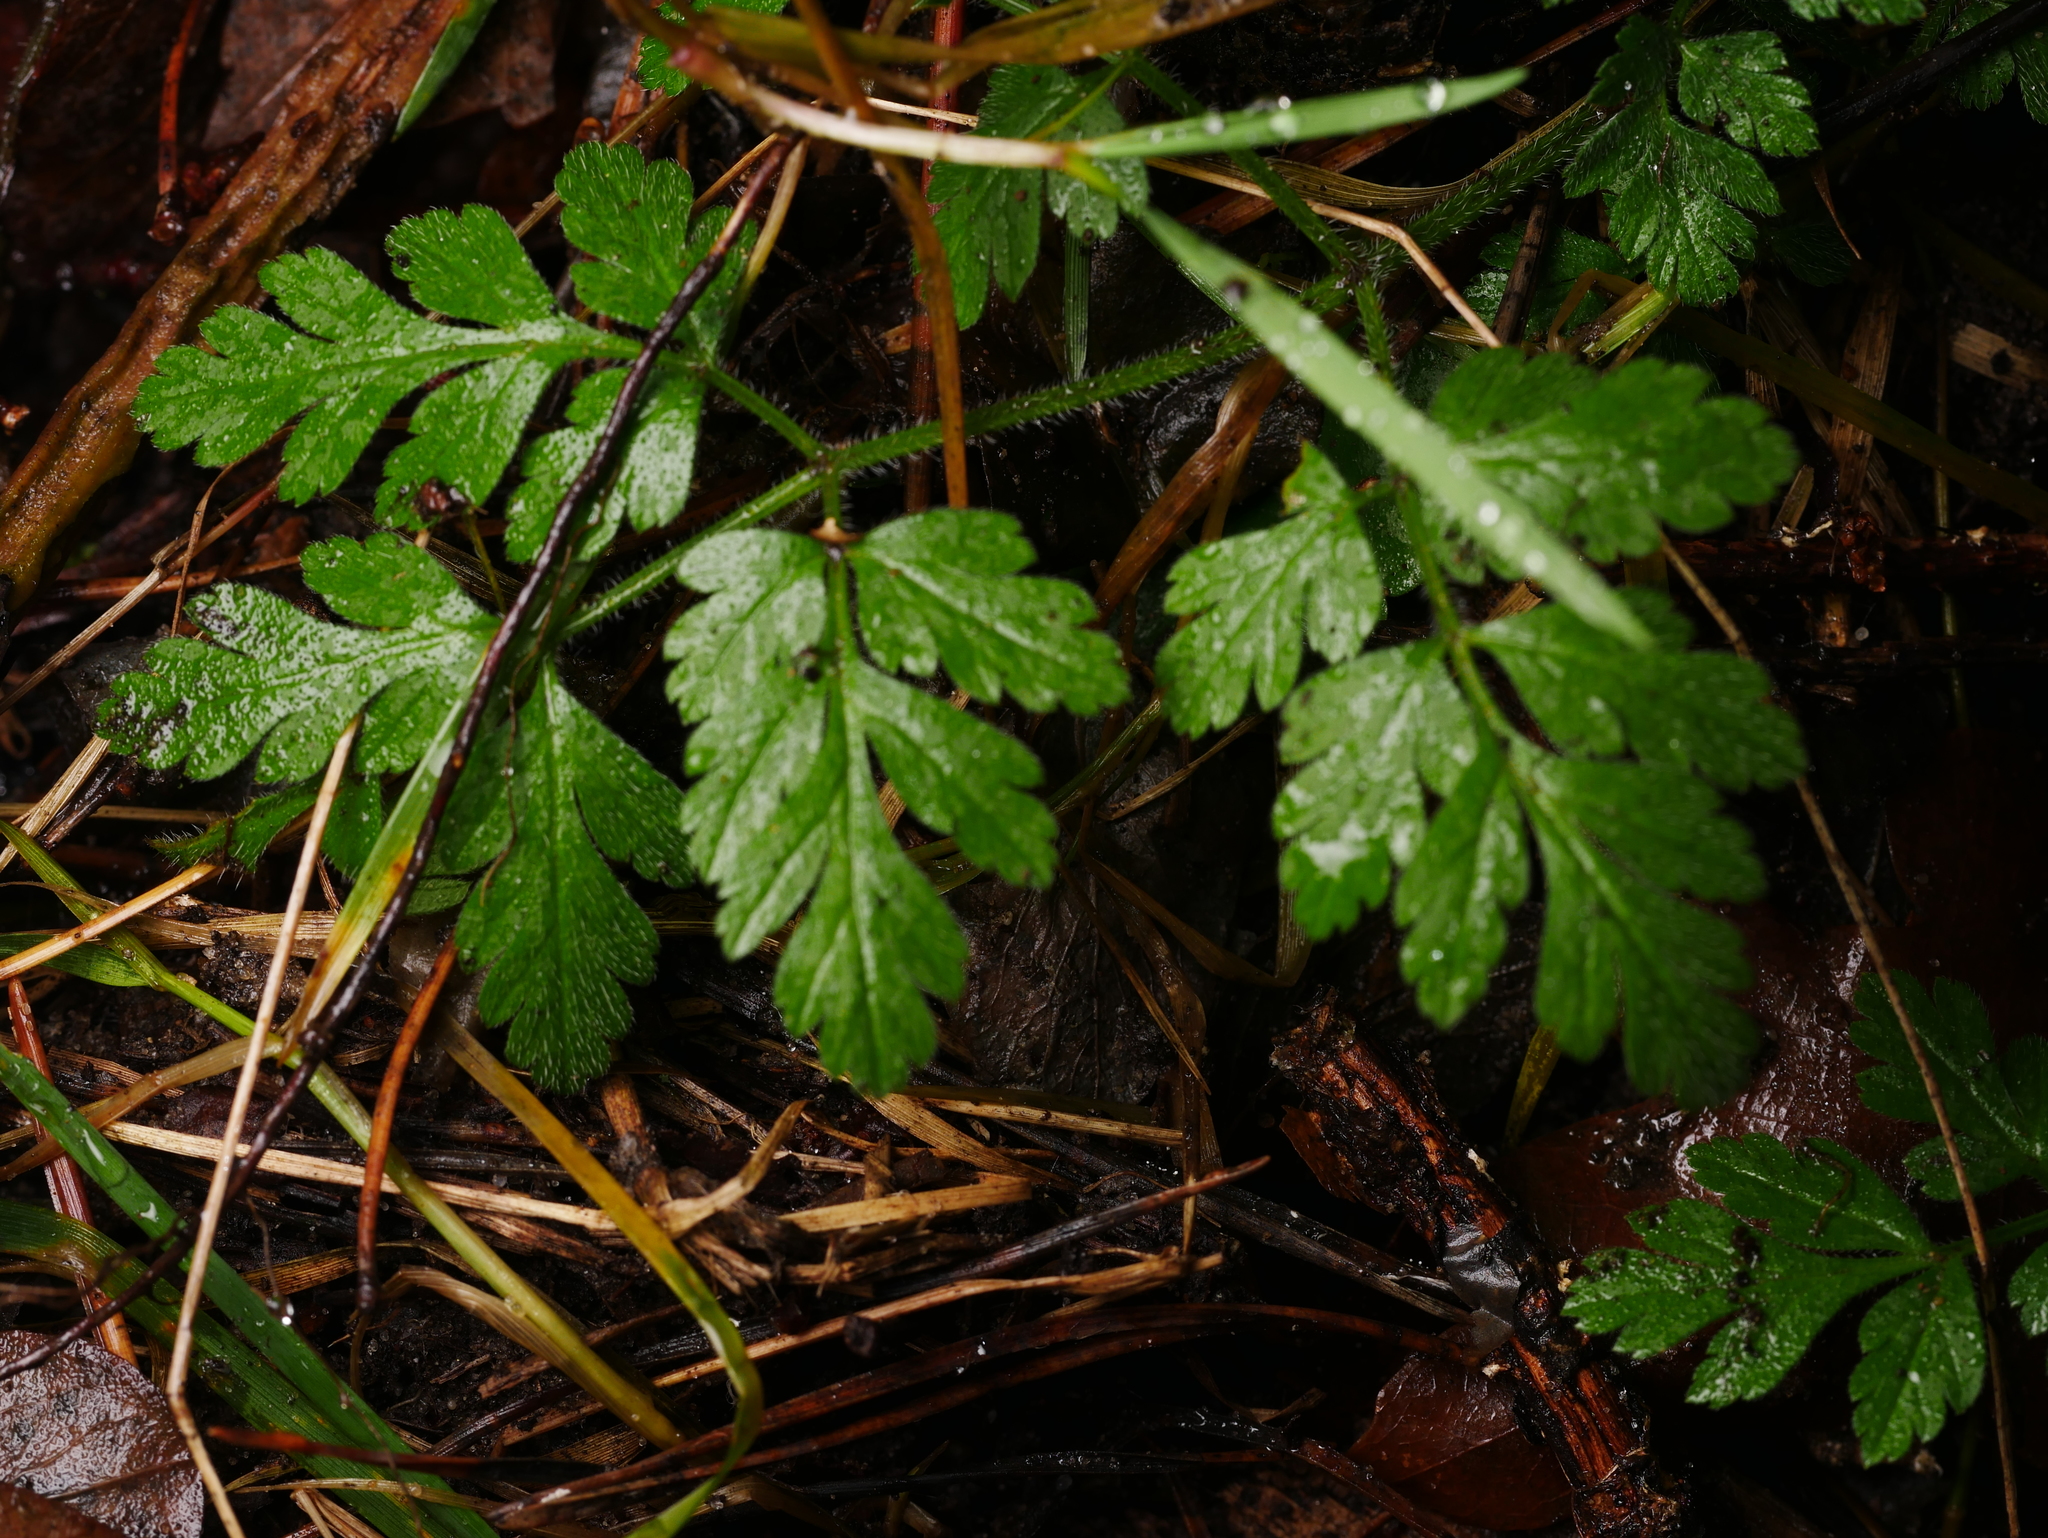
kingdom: Plantae
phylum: Tracheophyta
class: Magnoliopsida
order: Apiales
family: Apiaceae
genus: Chaerophyllum
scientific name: Chaerophyllum temulum
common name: Rough chervil
